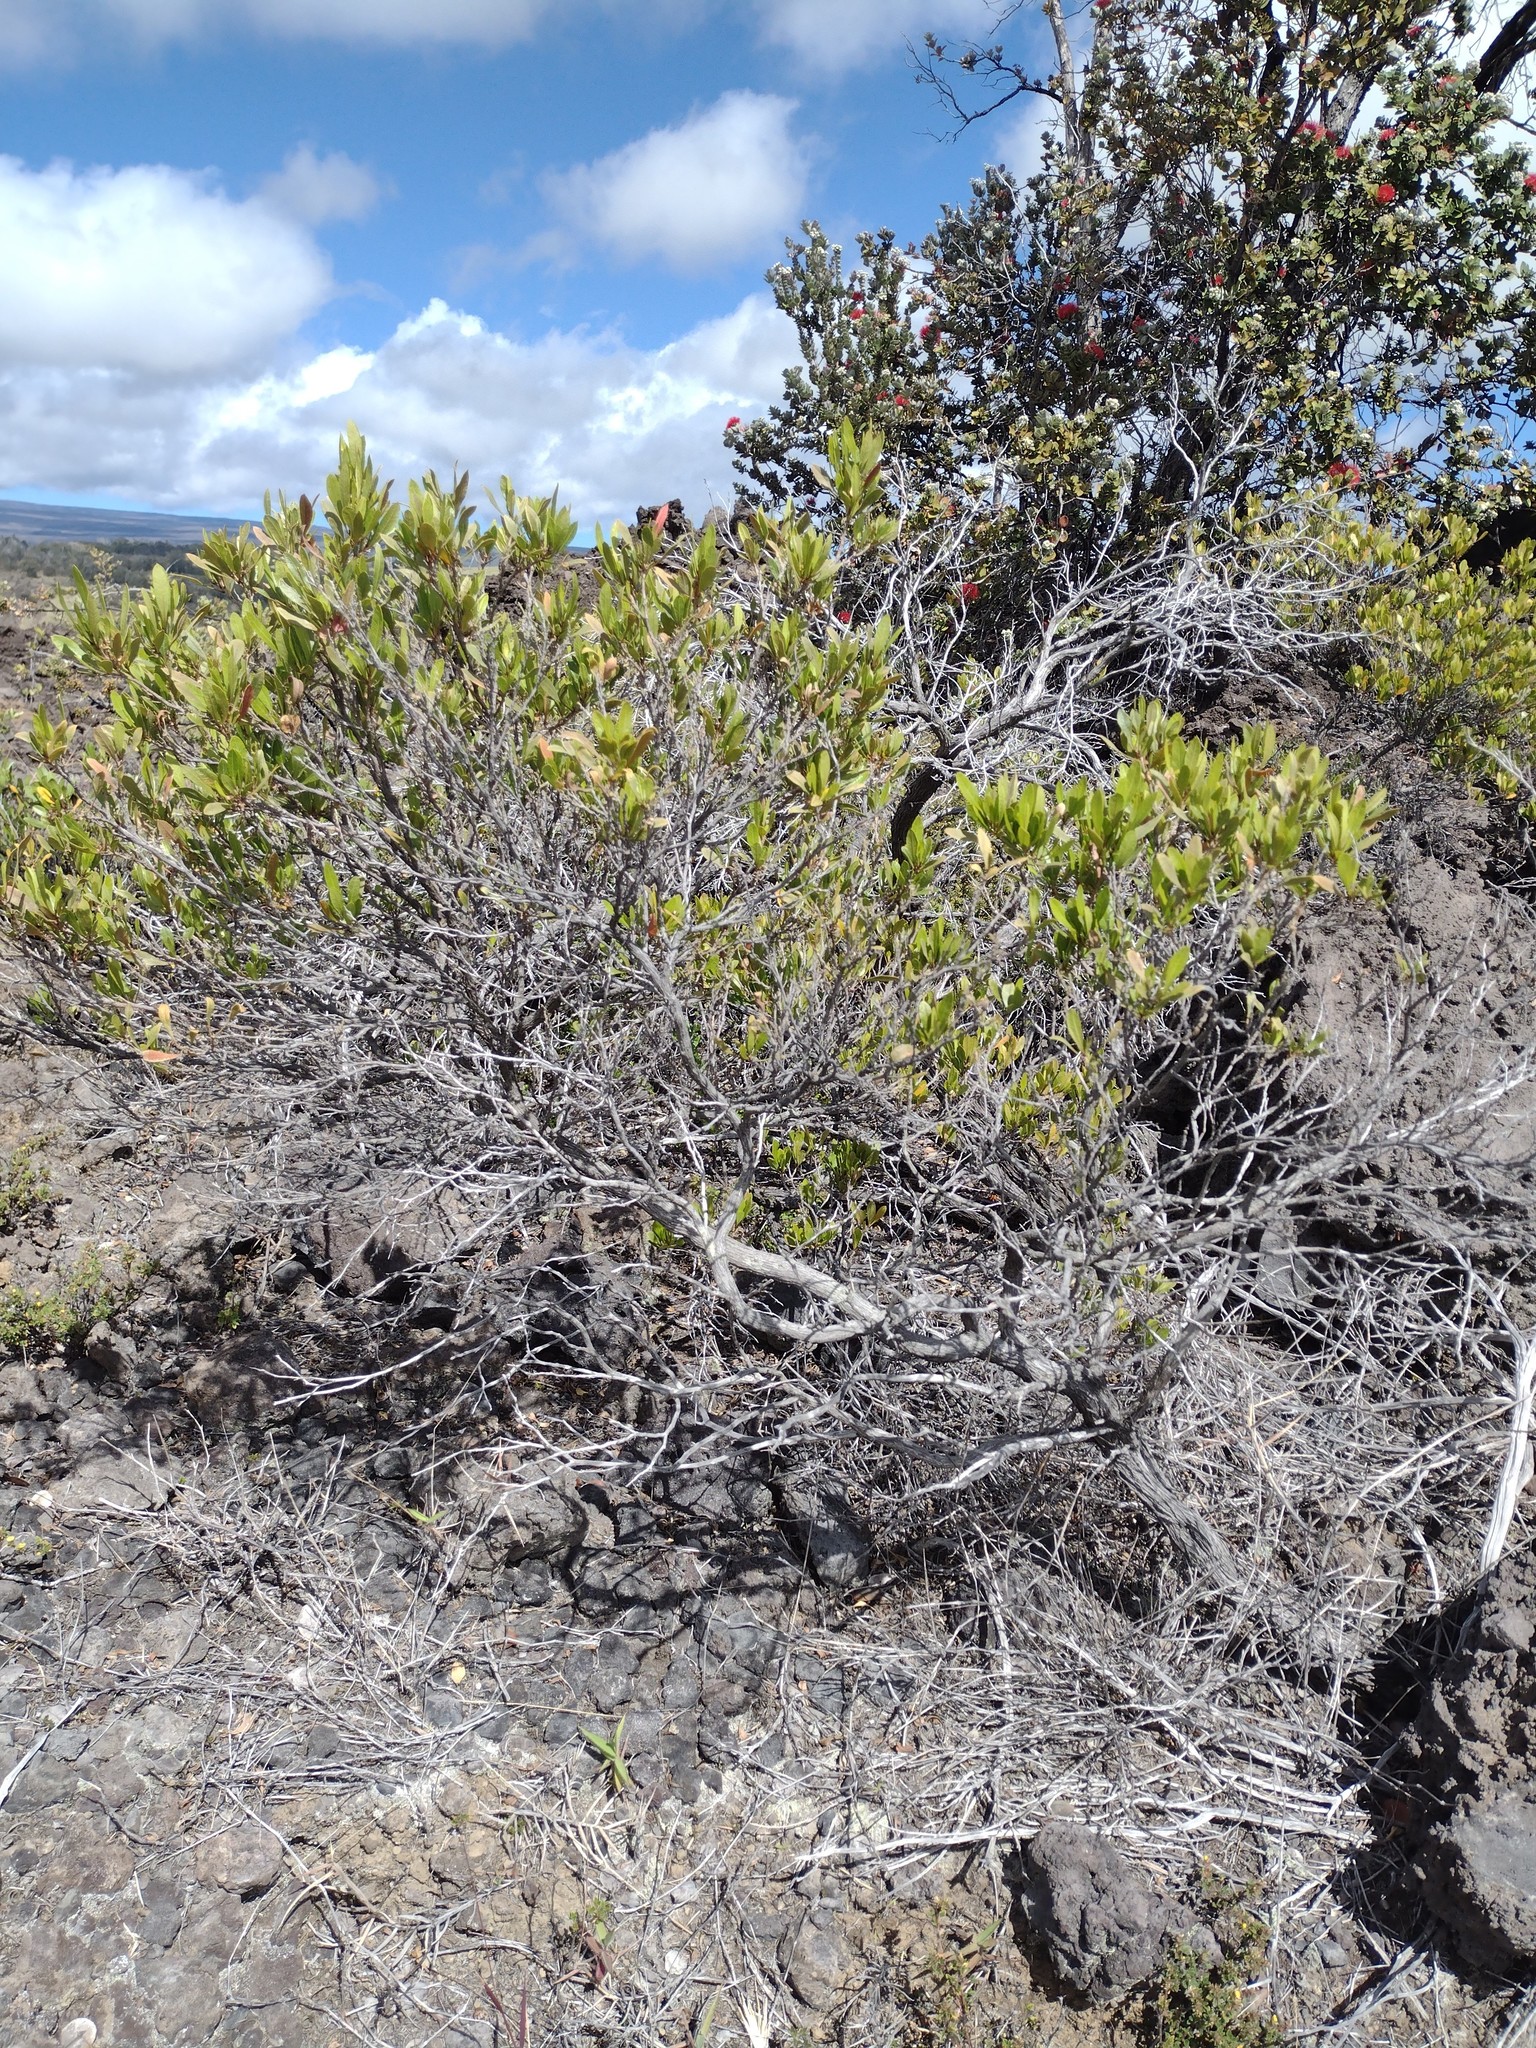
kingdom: Plantae
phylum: Tracheophyta
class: Magnoliopsida
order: Sapindales
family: Sapindaceae
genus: Dodonaea
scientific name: Dodonaea viscosa
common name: Hopbush
